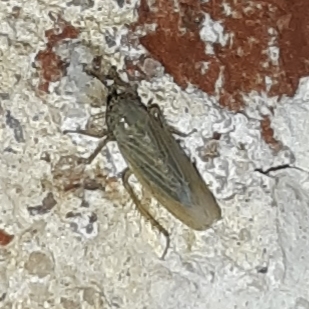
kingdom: Animalia
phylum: Arthropoda
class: Insecta
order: Hemiptera
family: Cicadellidae
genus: Graminella
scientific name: Graminella nigrifrons
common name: Blackfaced leafhopper
